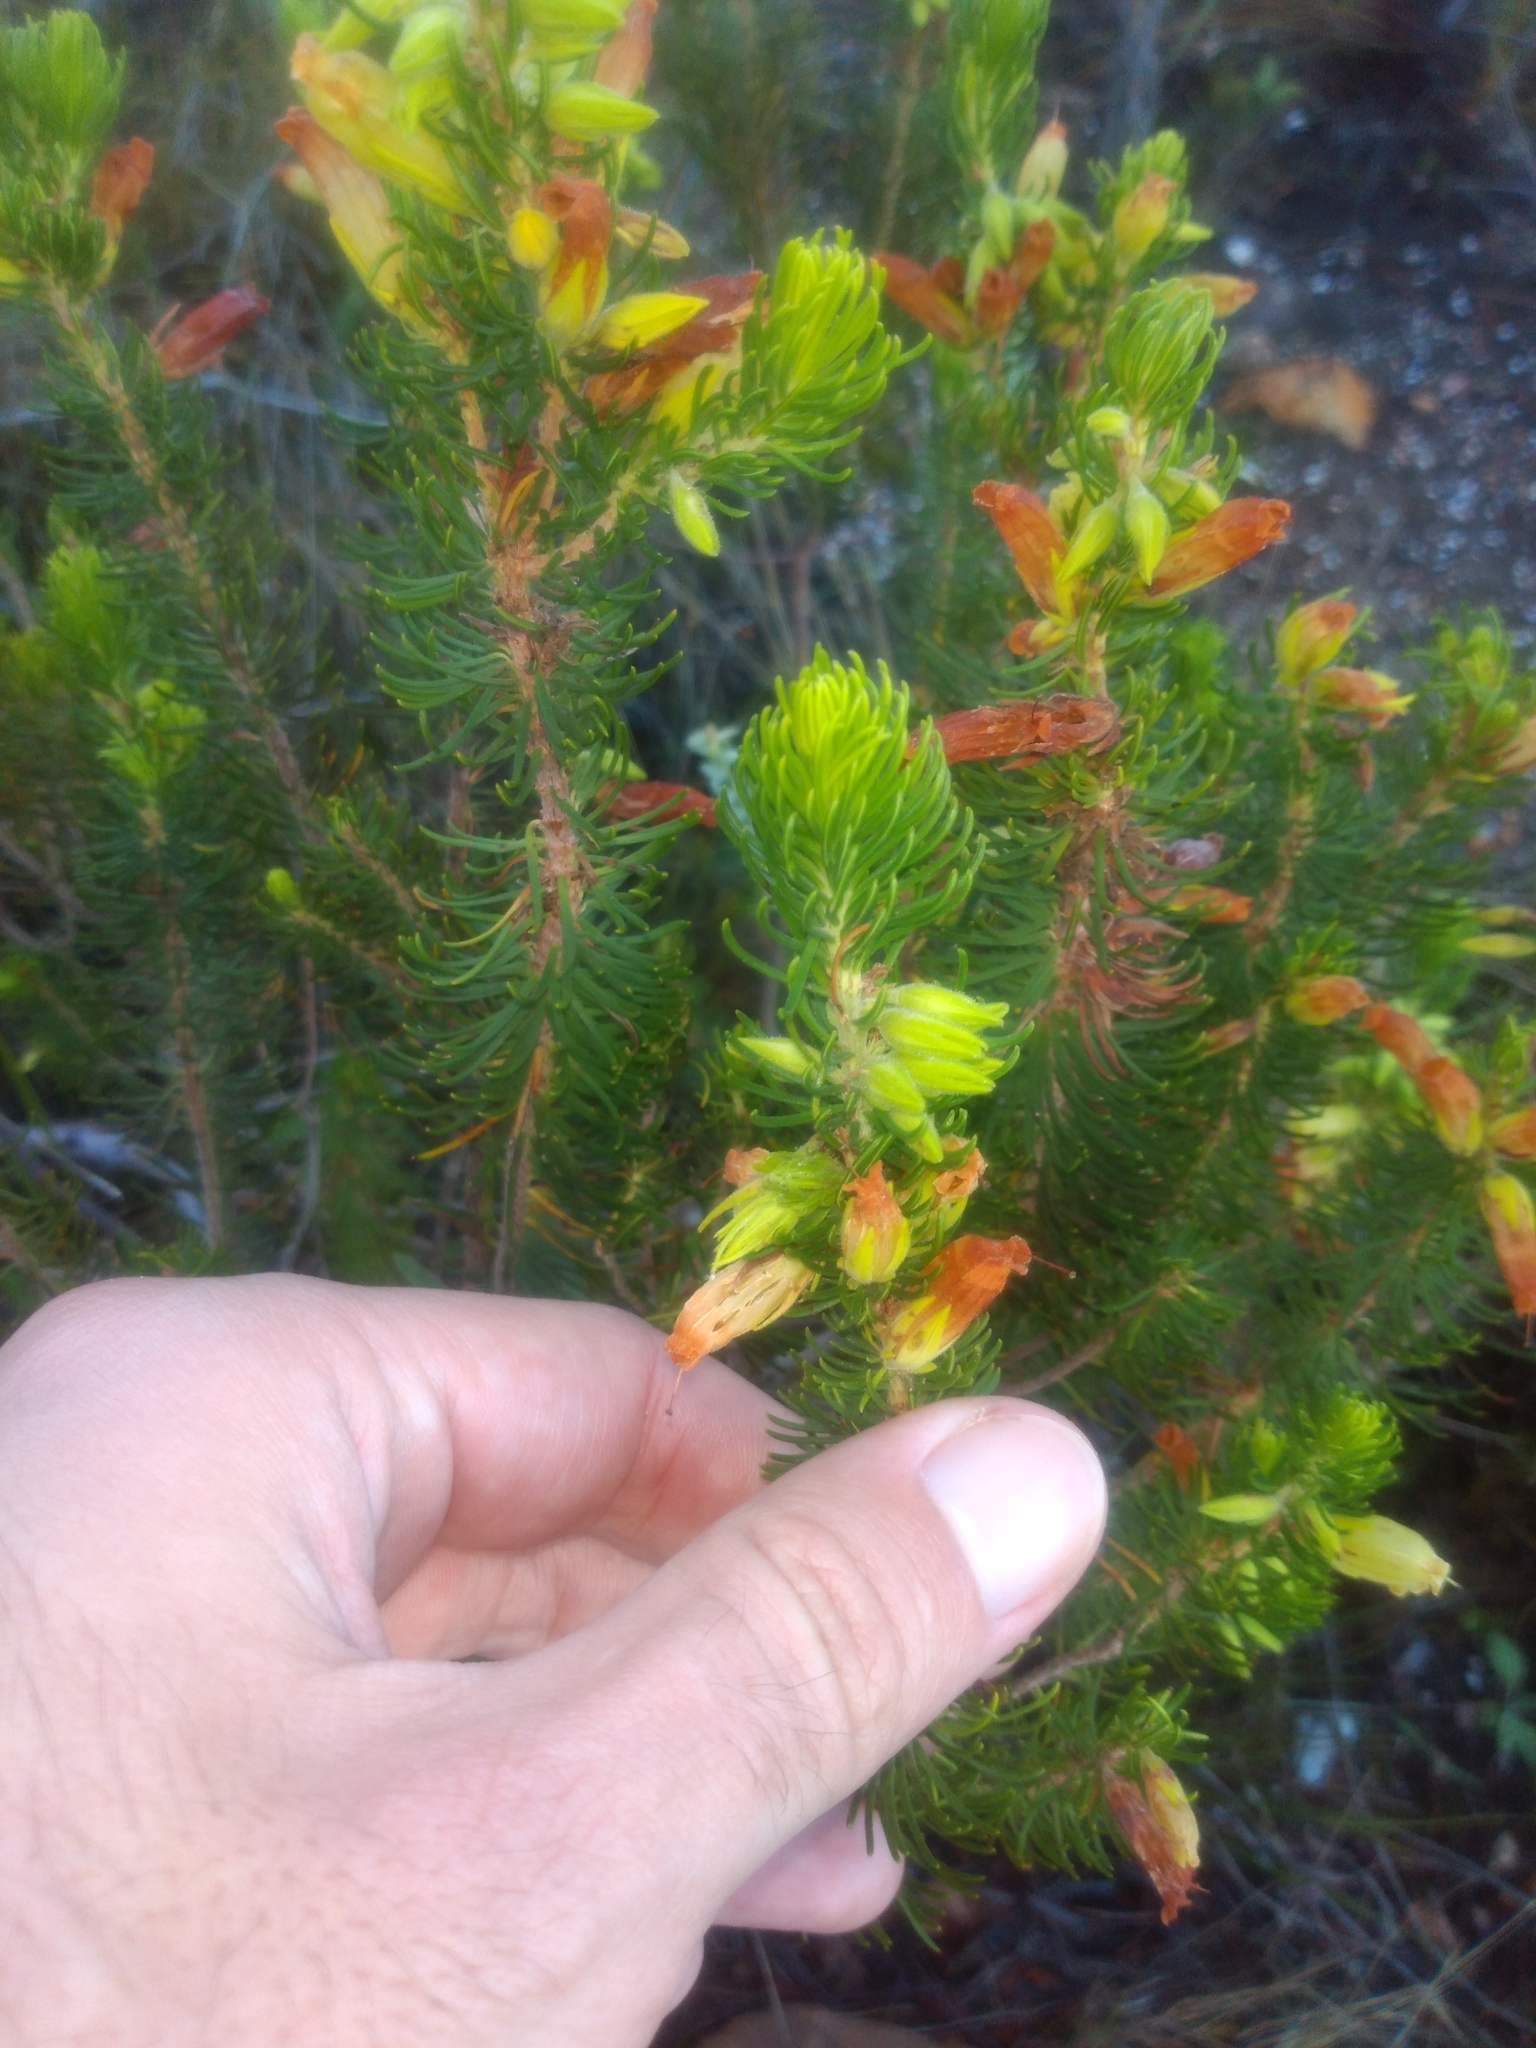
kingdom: Plantae
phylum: Tracheophyta
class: Magnoliopsida
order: Ericales
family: Ericaceae
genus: Erica
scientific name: Erica viscaria
